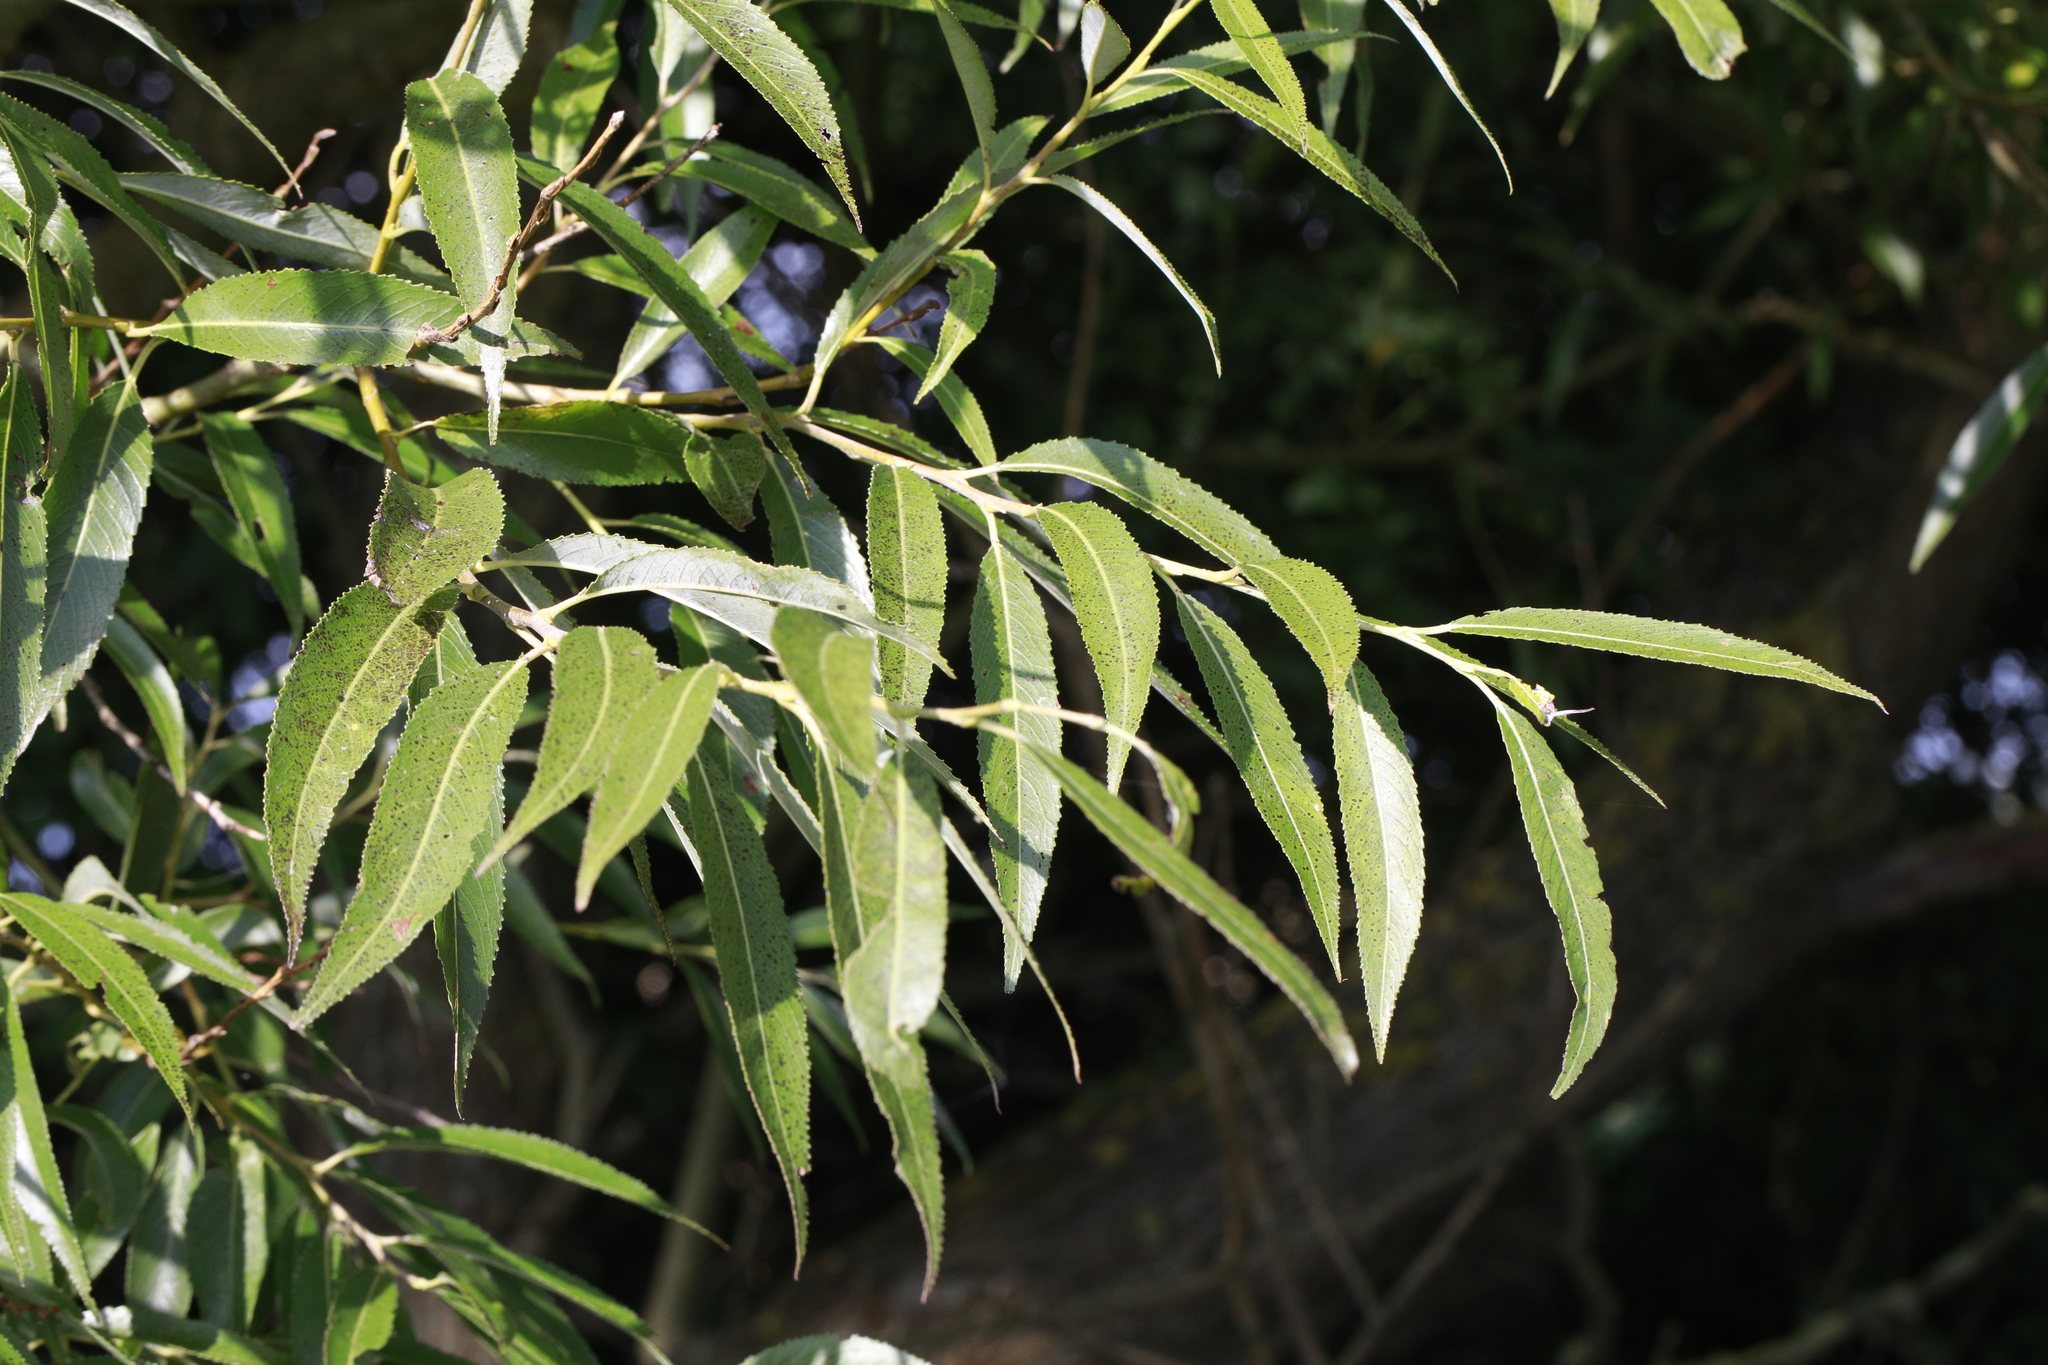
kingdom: Plantae
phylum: Tracheophyta
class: Magnoliopsida
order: Malpighiales
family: Salicaceae
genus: Salix
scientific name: Salix fragilis
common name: Crack willow
